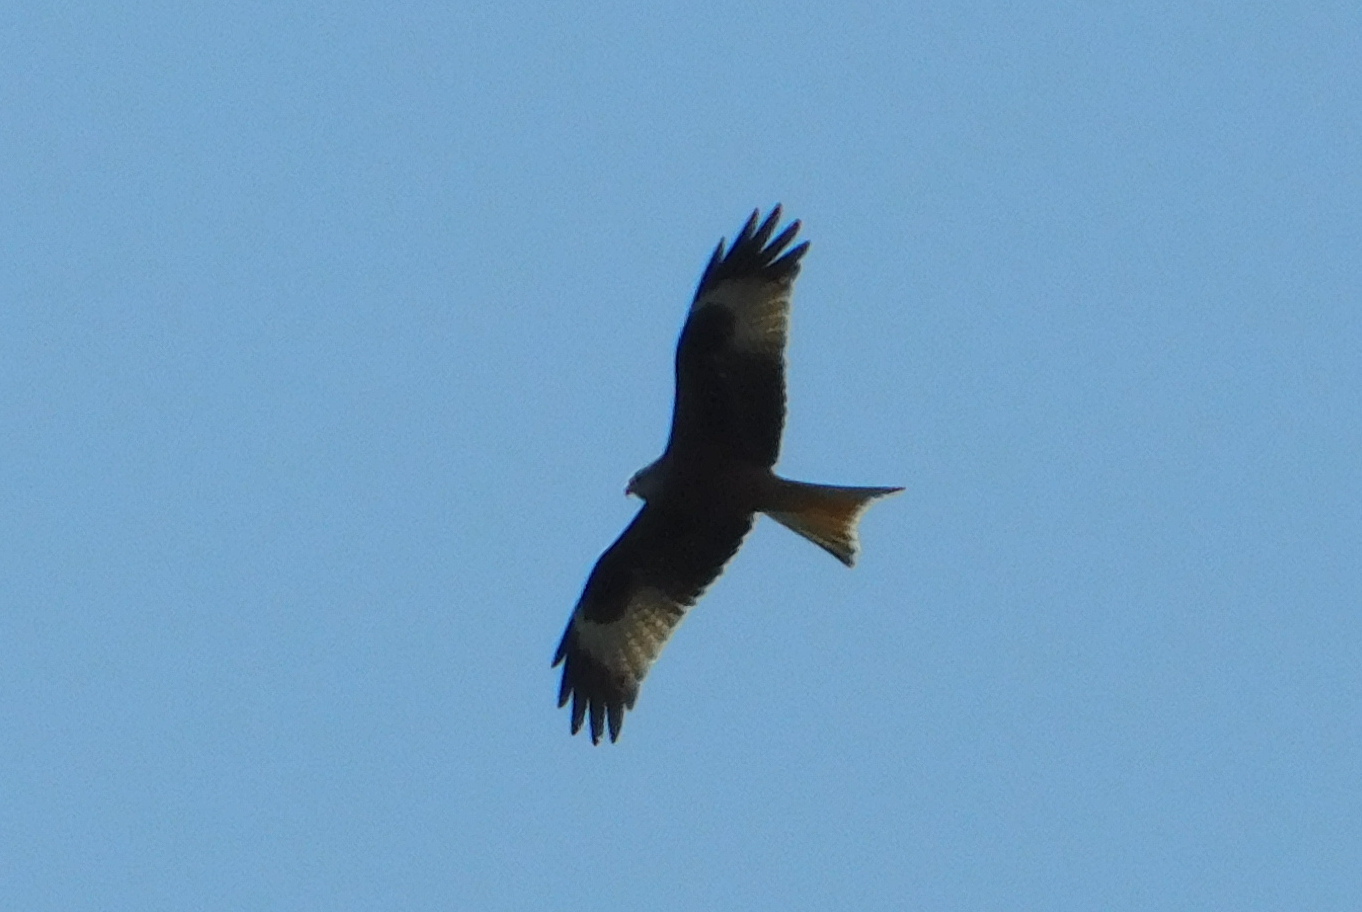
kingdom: Animalia
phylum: Chordata
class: Aves
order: Accipitriformes
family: Accipitridae
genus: Milvus
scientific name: Milvus milvus
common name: Red kite
